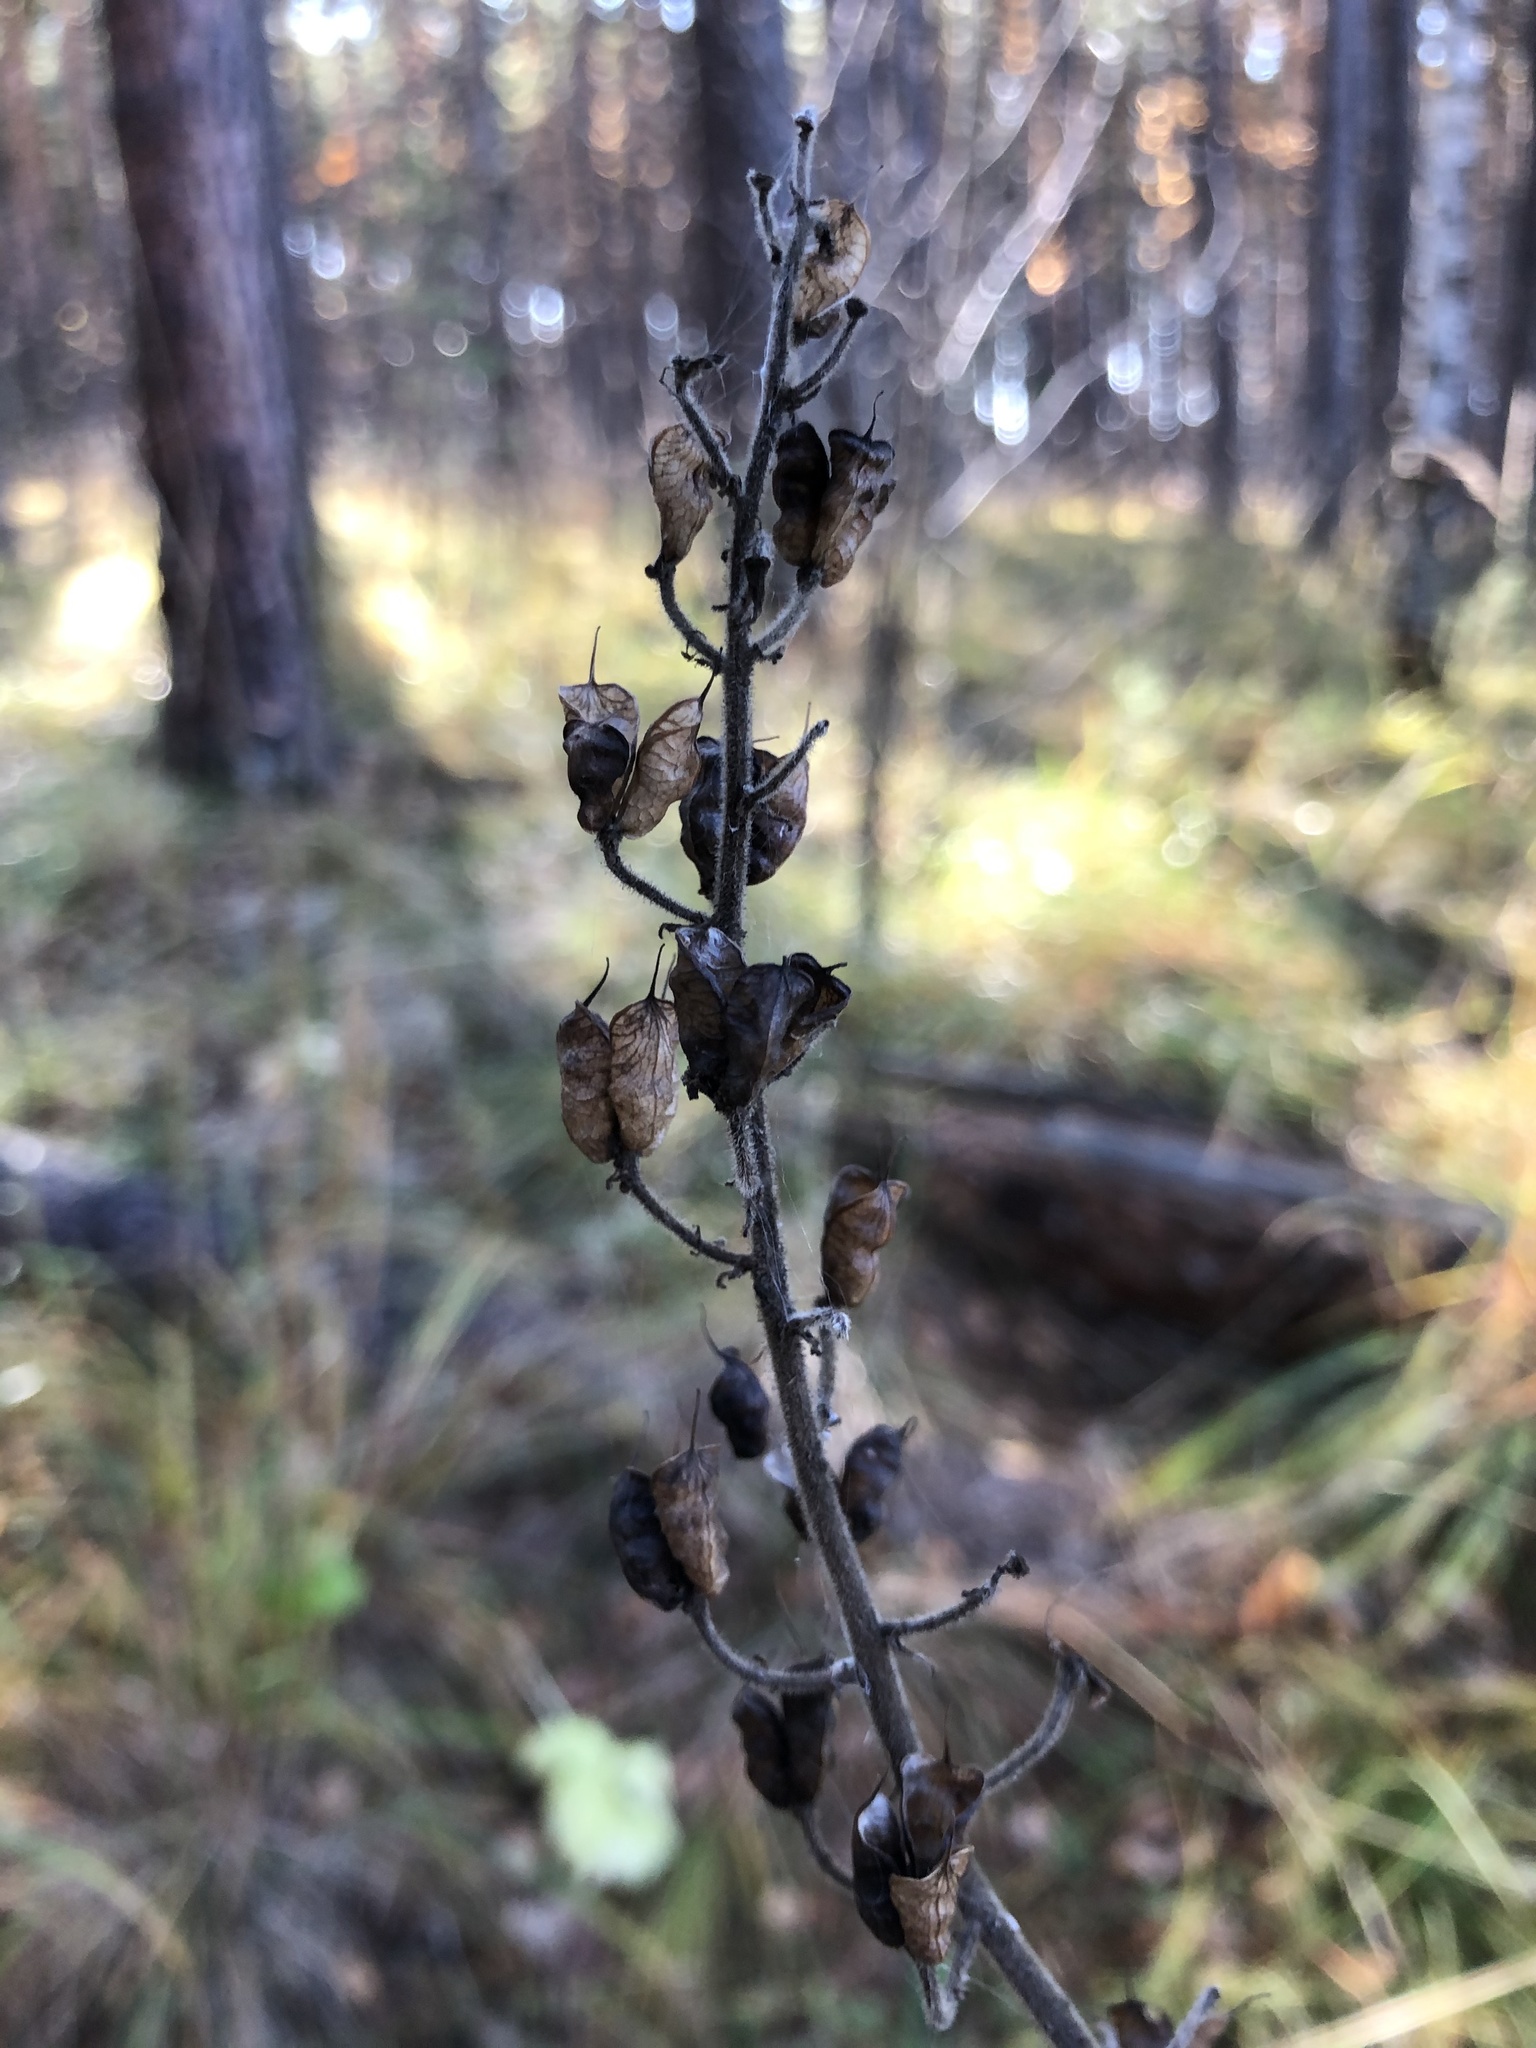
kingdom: Plantae
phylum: Tracheophyta
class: Magnoliopsida
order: Ranunculales
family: Ranunculaceae
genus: Aconitum
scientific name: Aconitum septentrionale
